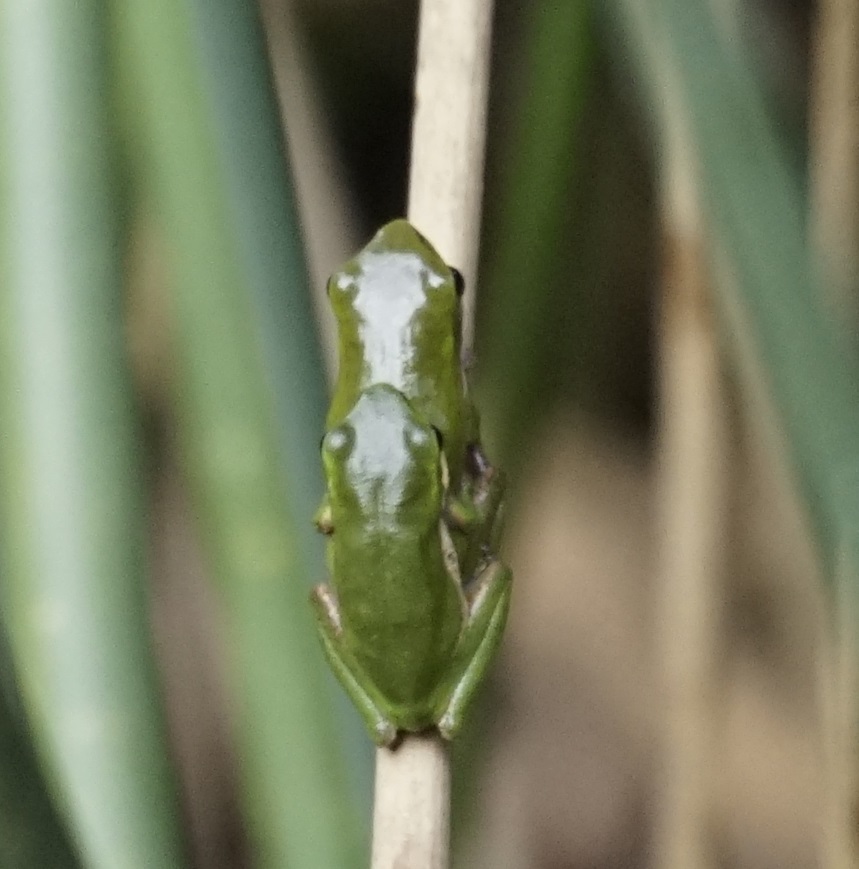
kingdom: Animalia
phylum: Chordata
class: Amphibia
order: Anura
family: Pelodryadidae
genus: Litoria
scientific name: Litoria fallax
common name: Eastern dwarf treefrog
